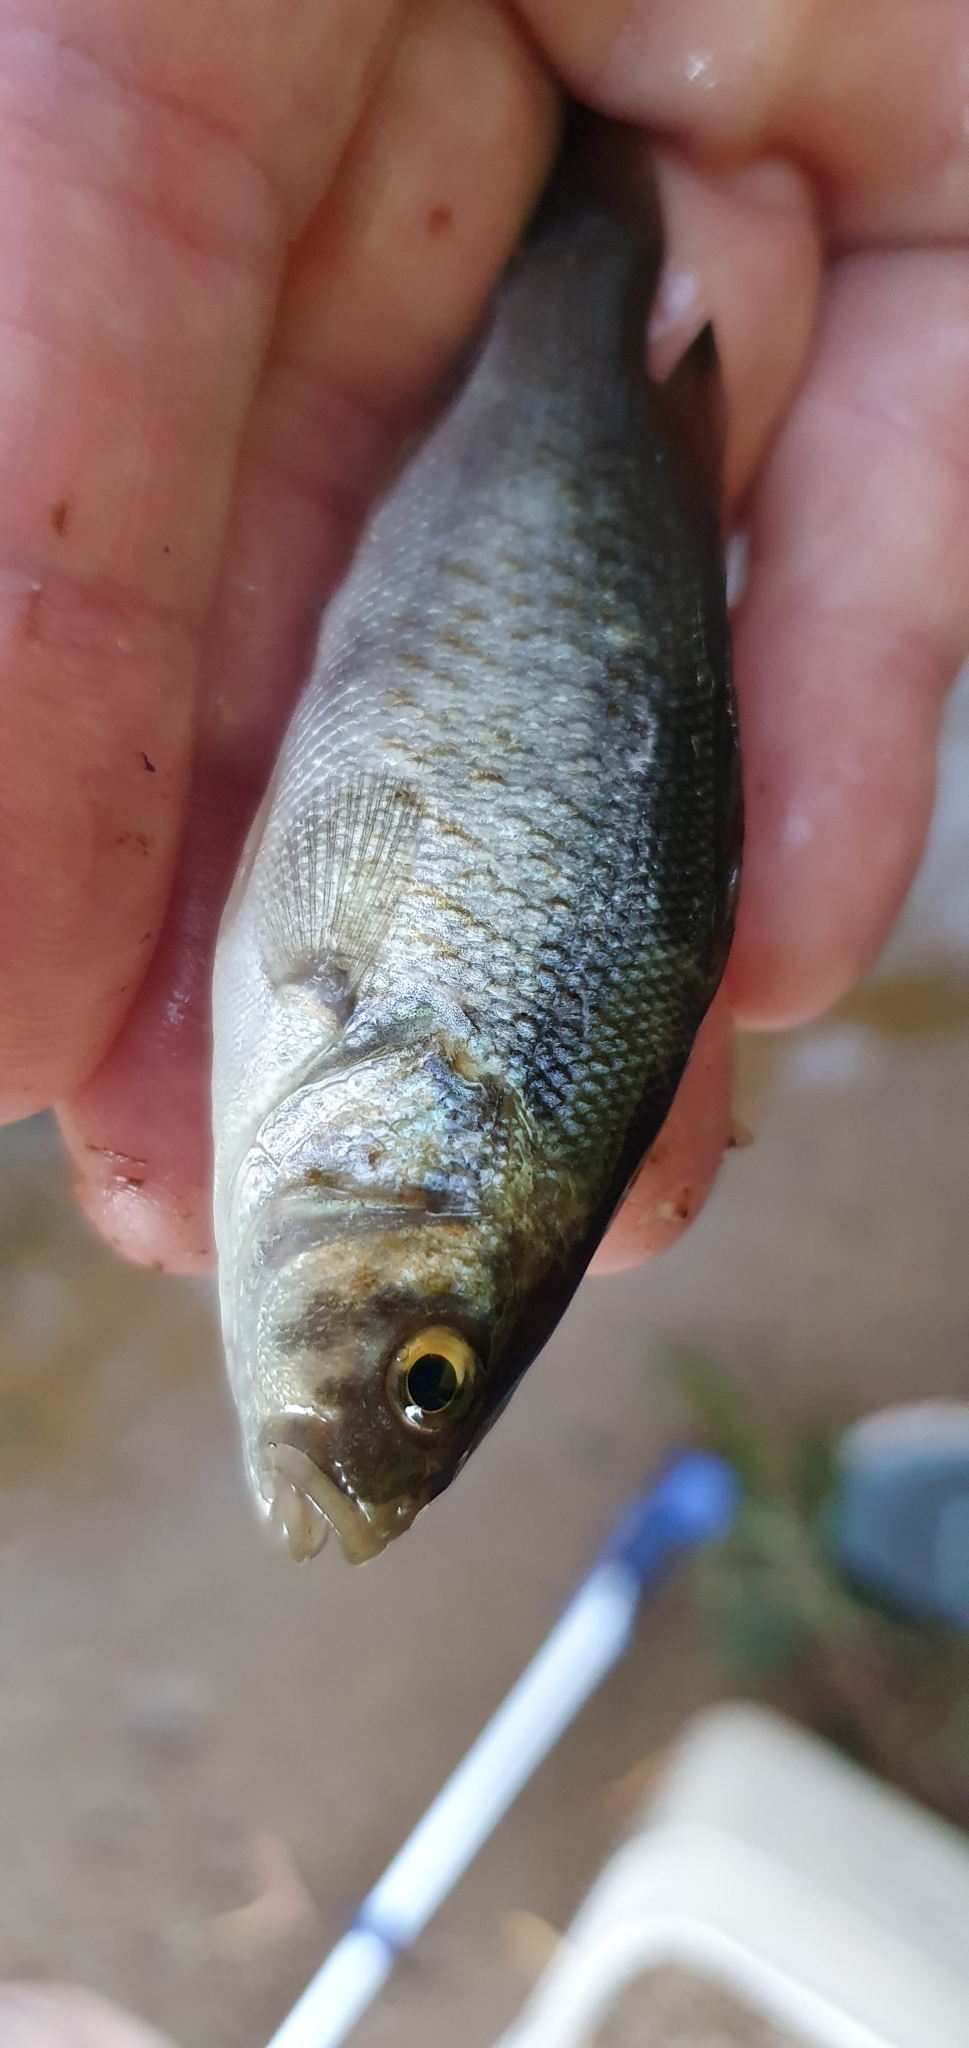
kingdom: Animalia
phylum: Chordata
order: Perciformes
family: Terapontidae
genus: Leiopotherapon
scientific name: Leiopotherapon unicolor
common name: Bobby
